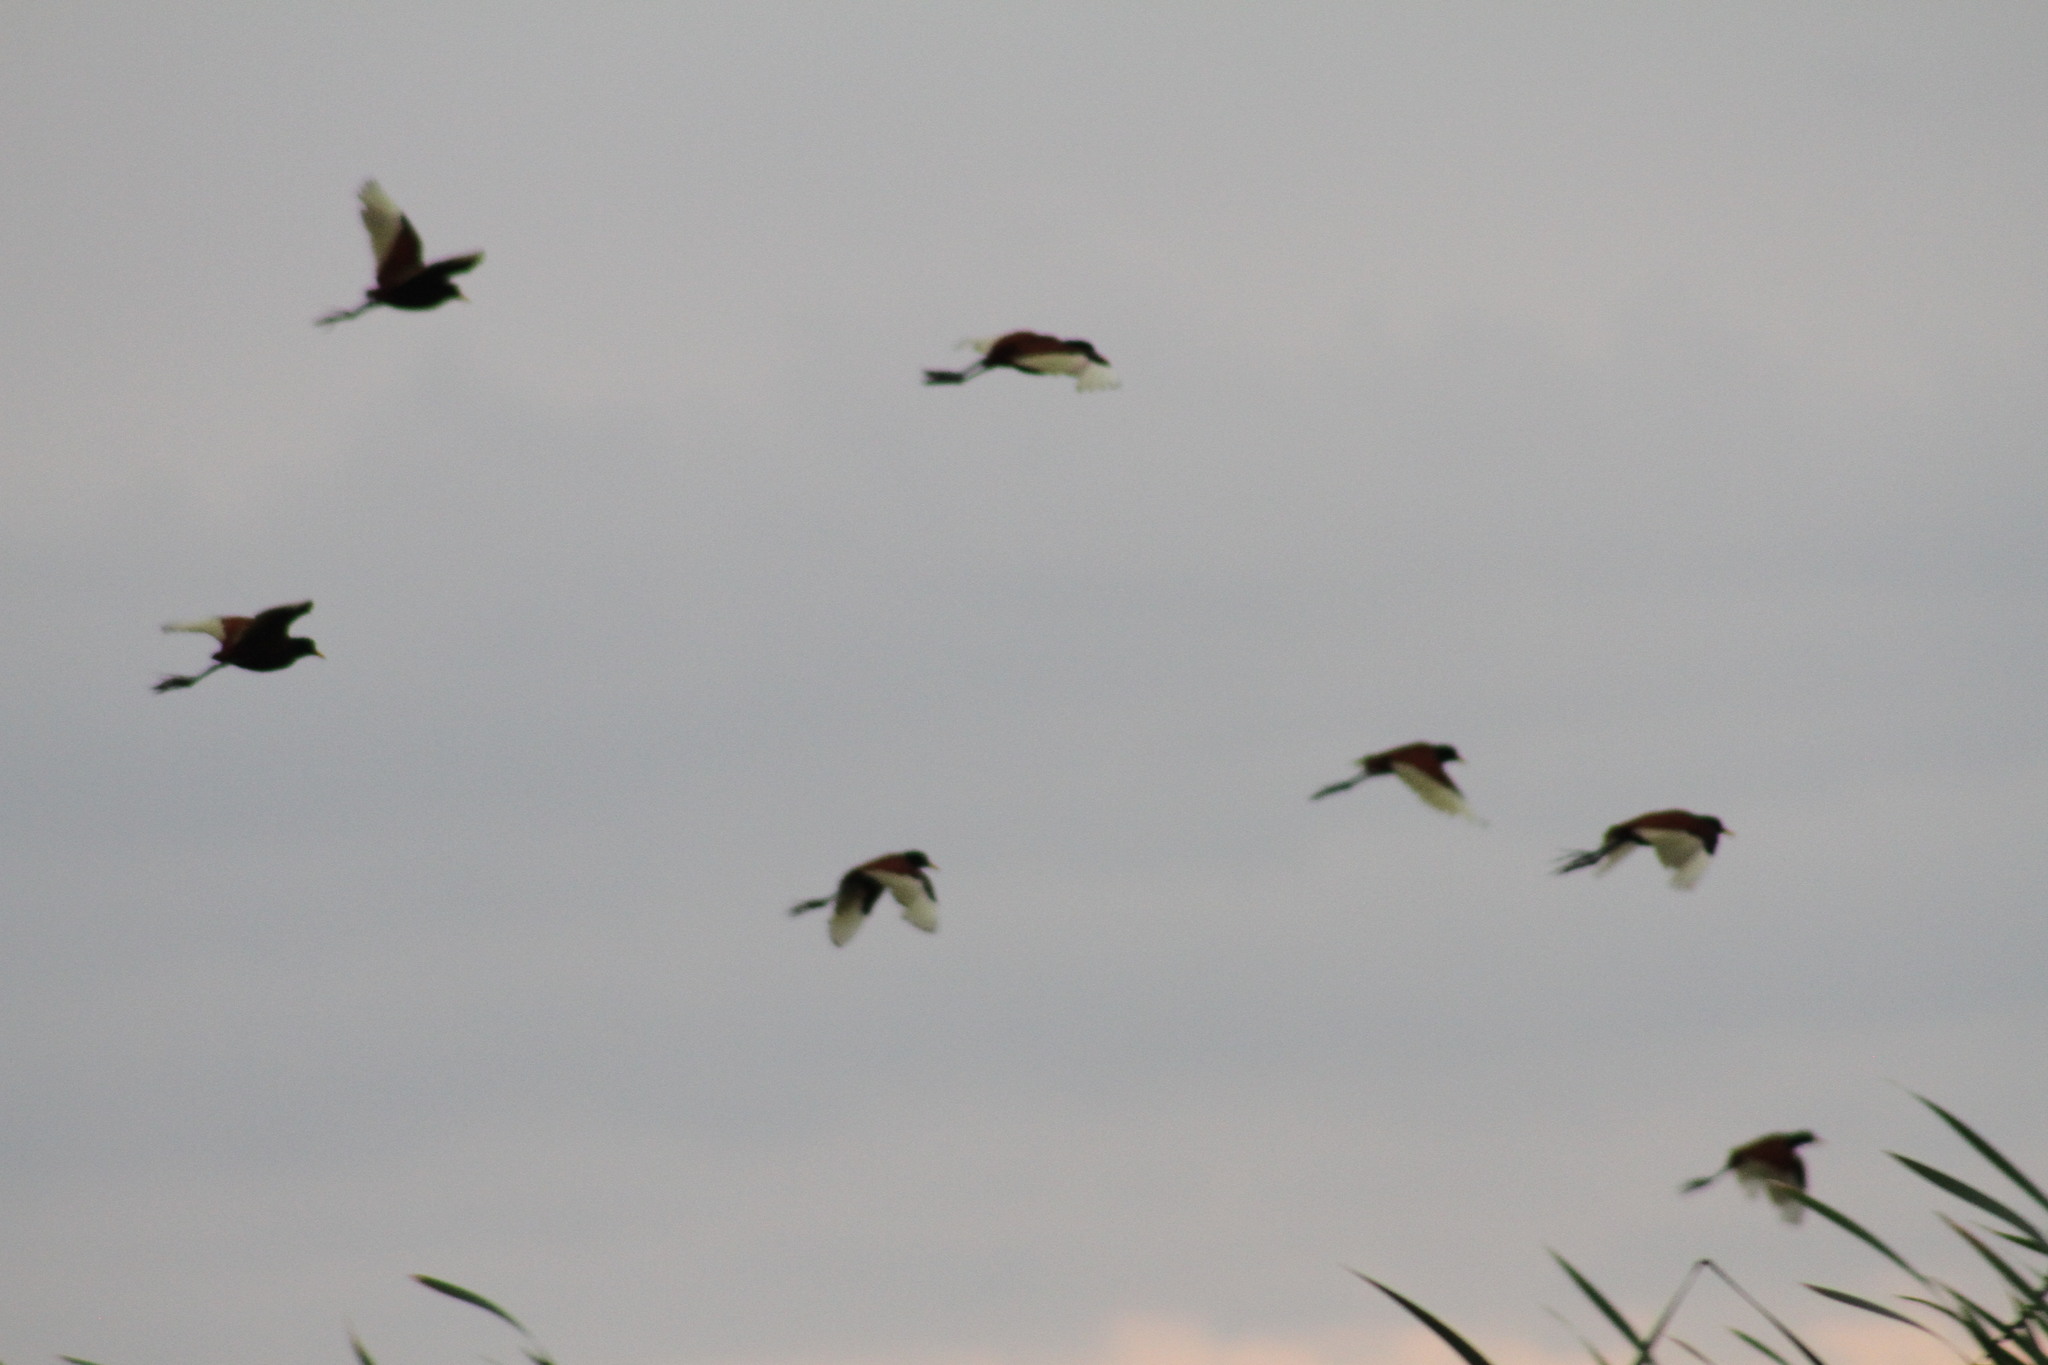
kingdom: Animalia
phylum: Chordata
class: Aves
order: Charadriiformes
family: Jacanidae
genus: Jacana
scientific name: Jacana jacana
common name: Wattled jacana
